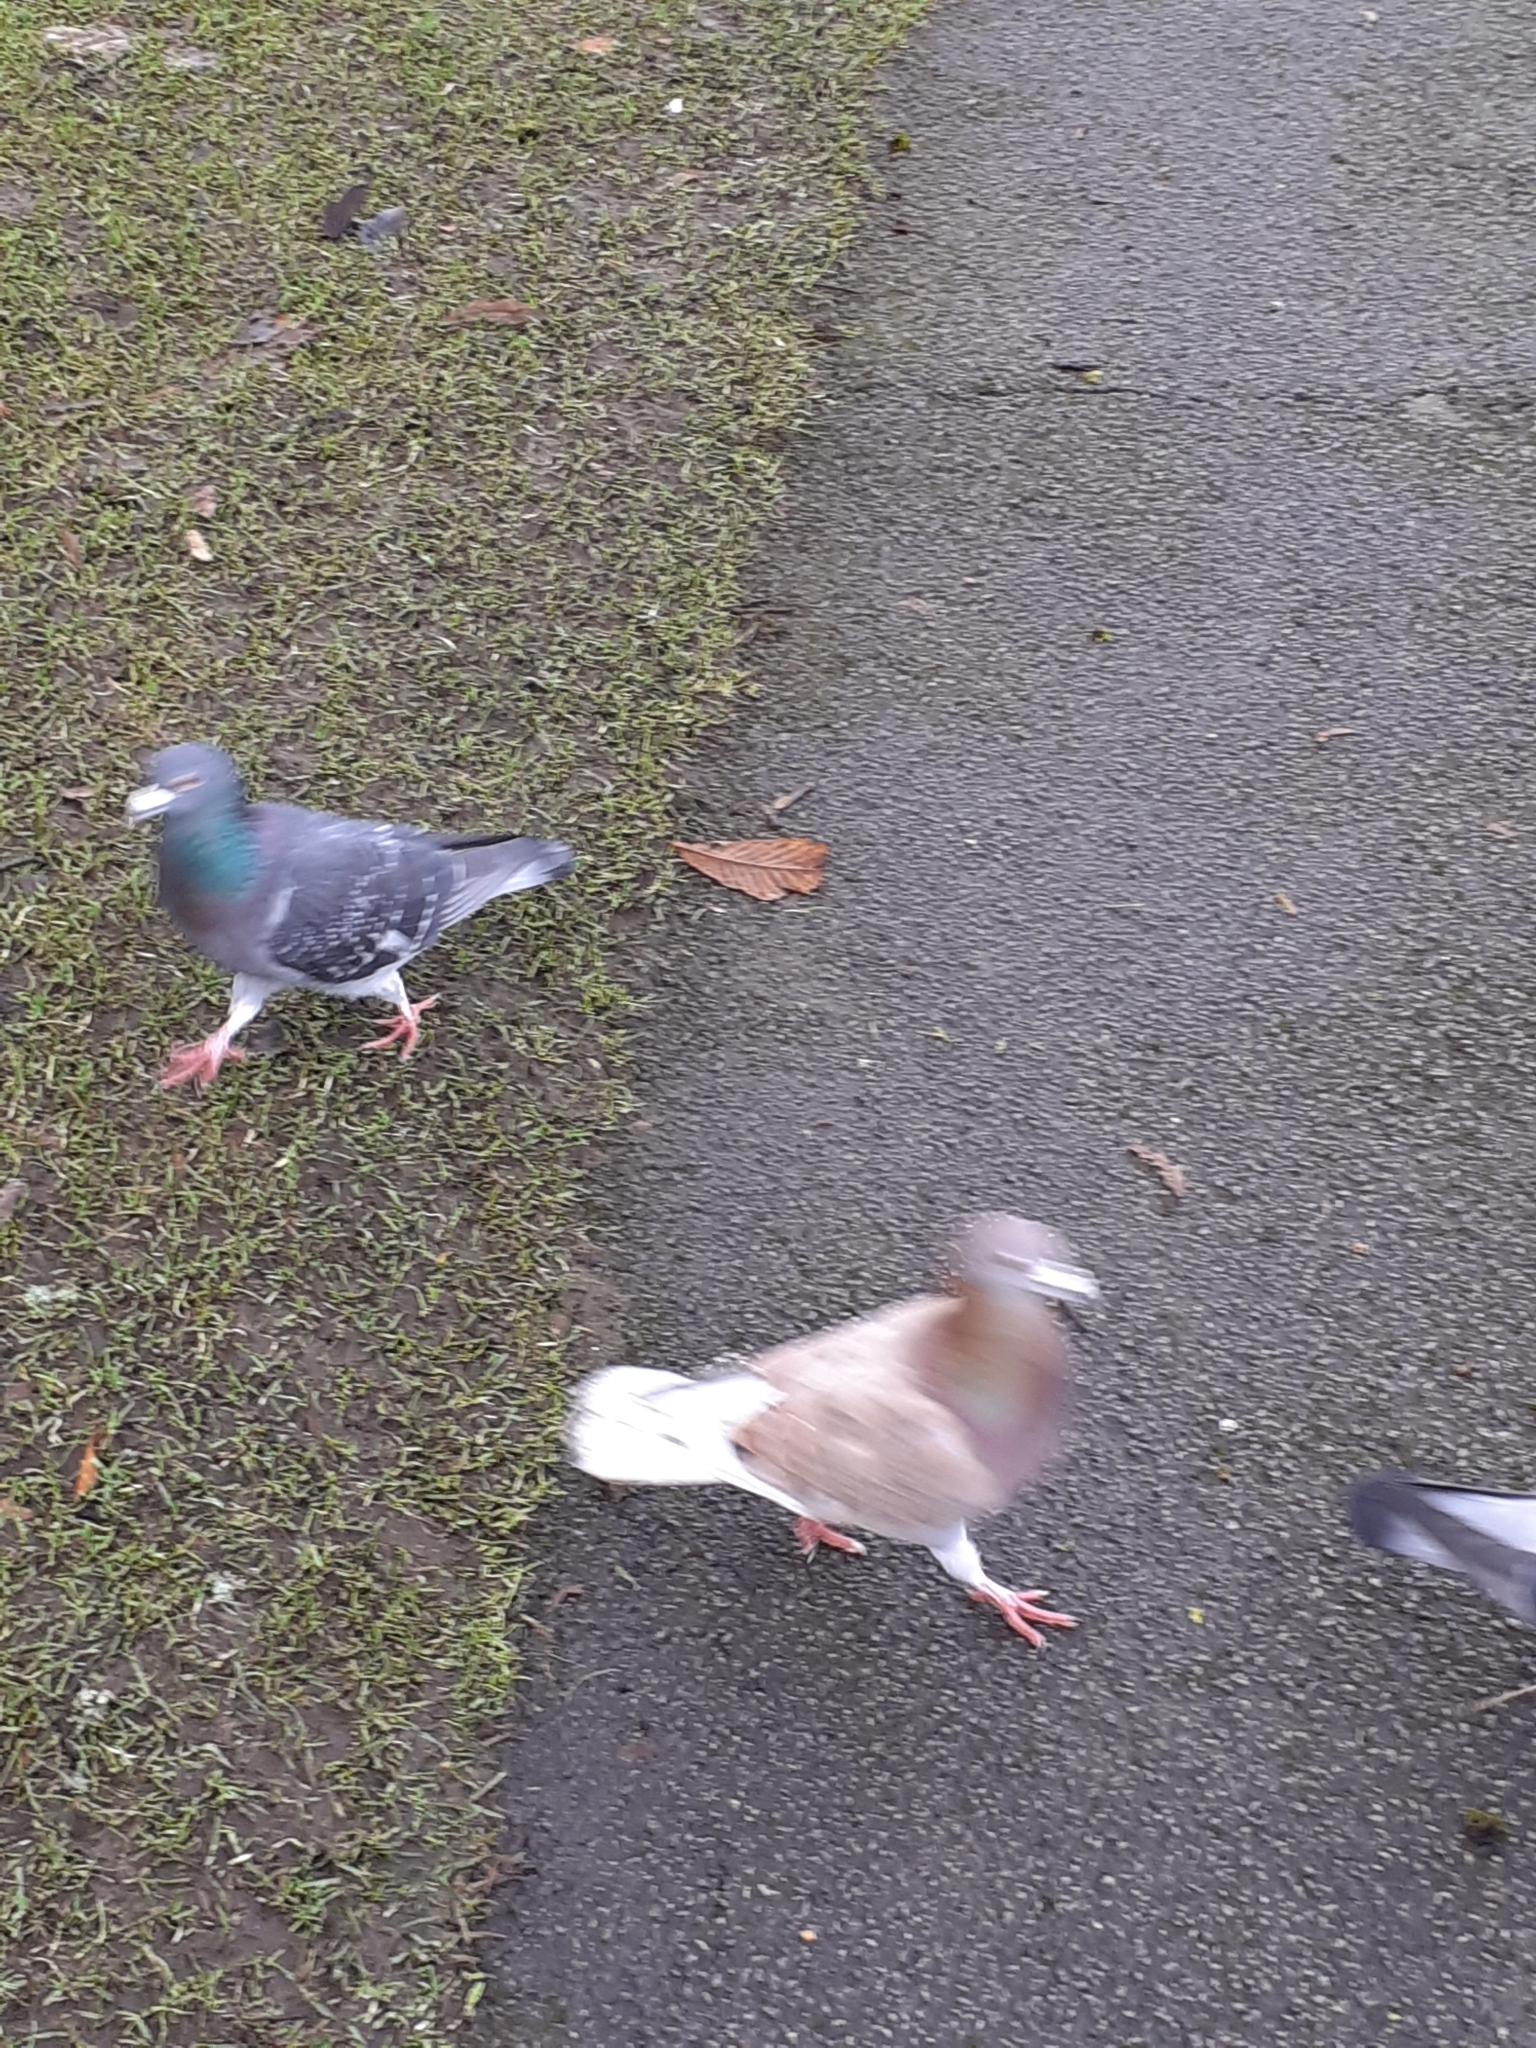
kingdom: Animalia
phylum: Chordata
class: Aves
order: Columbiformes
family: Columbidae
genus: Columba
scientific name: Columba livia
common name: Rock pigeon
